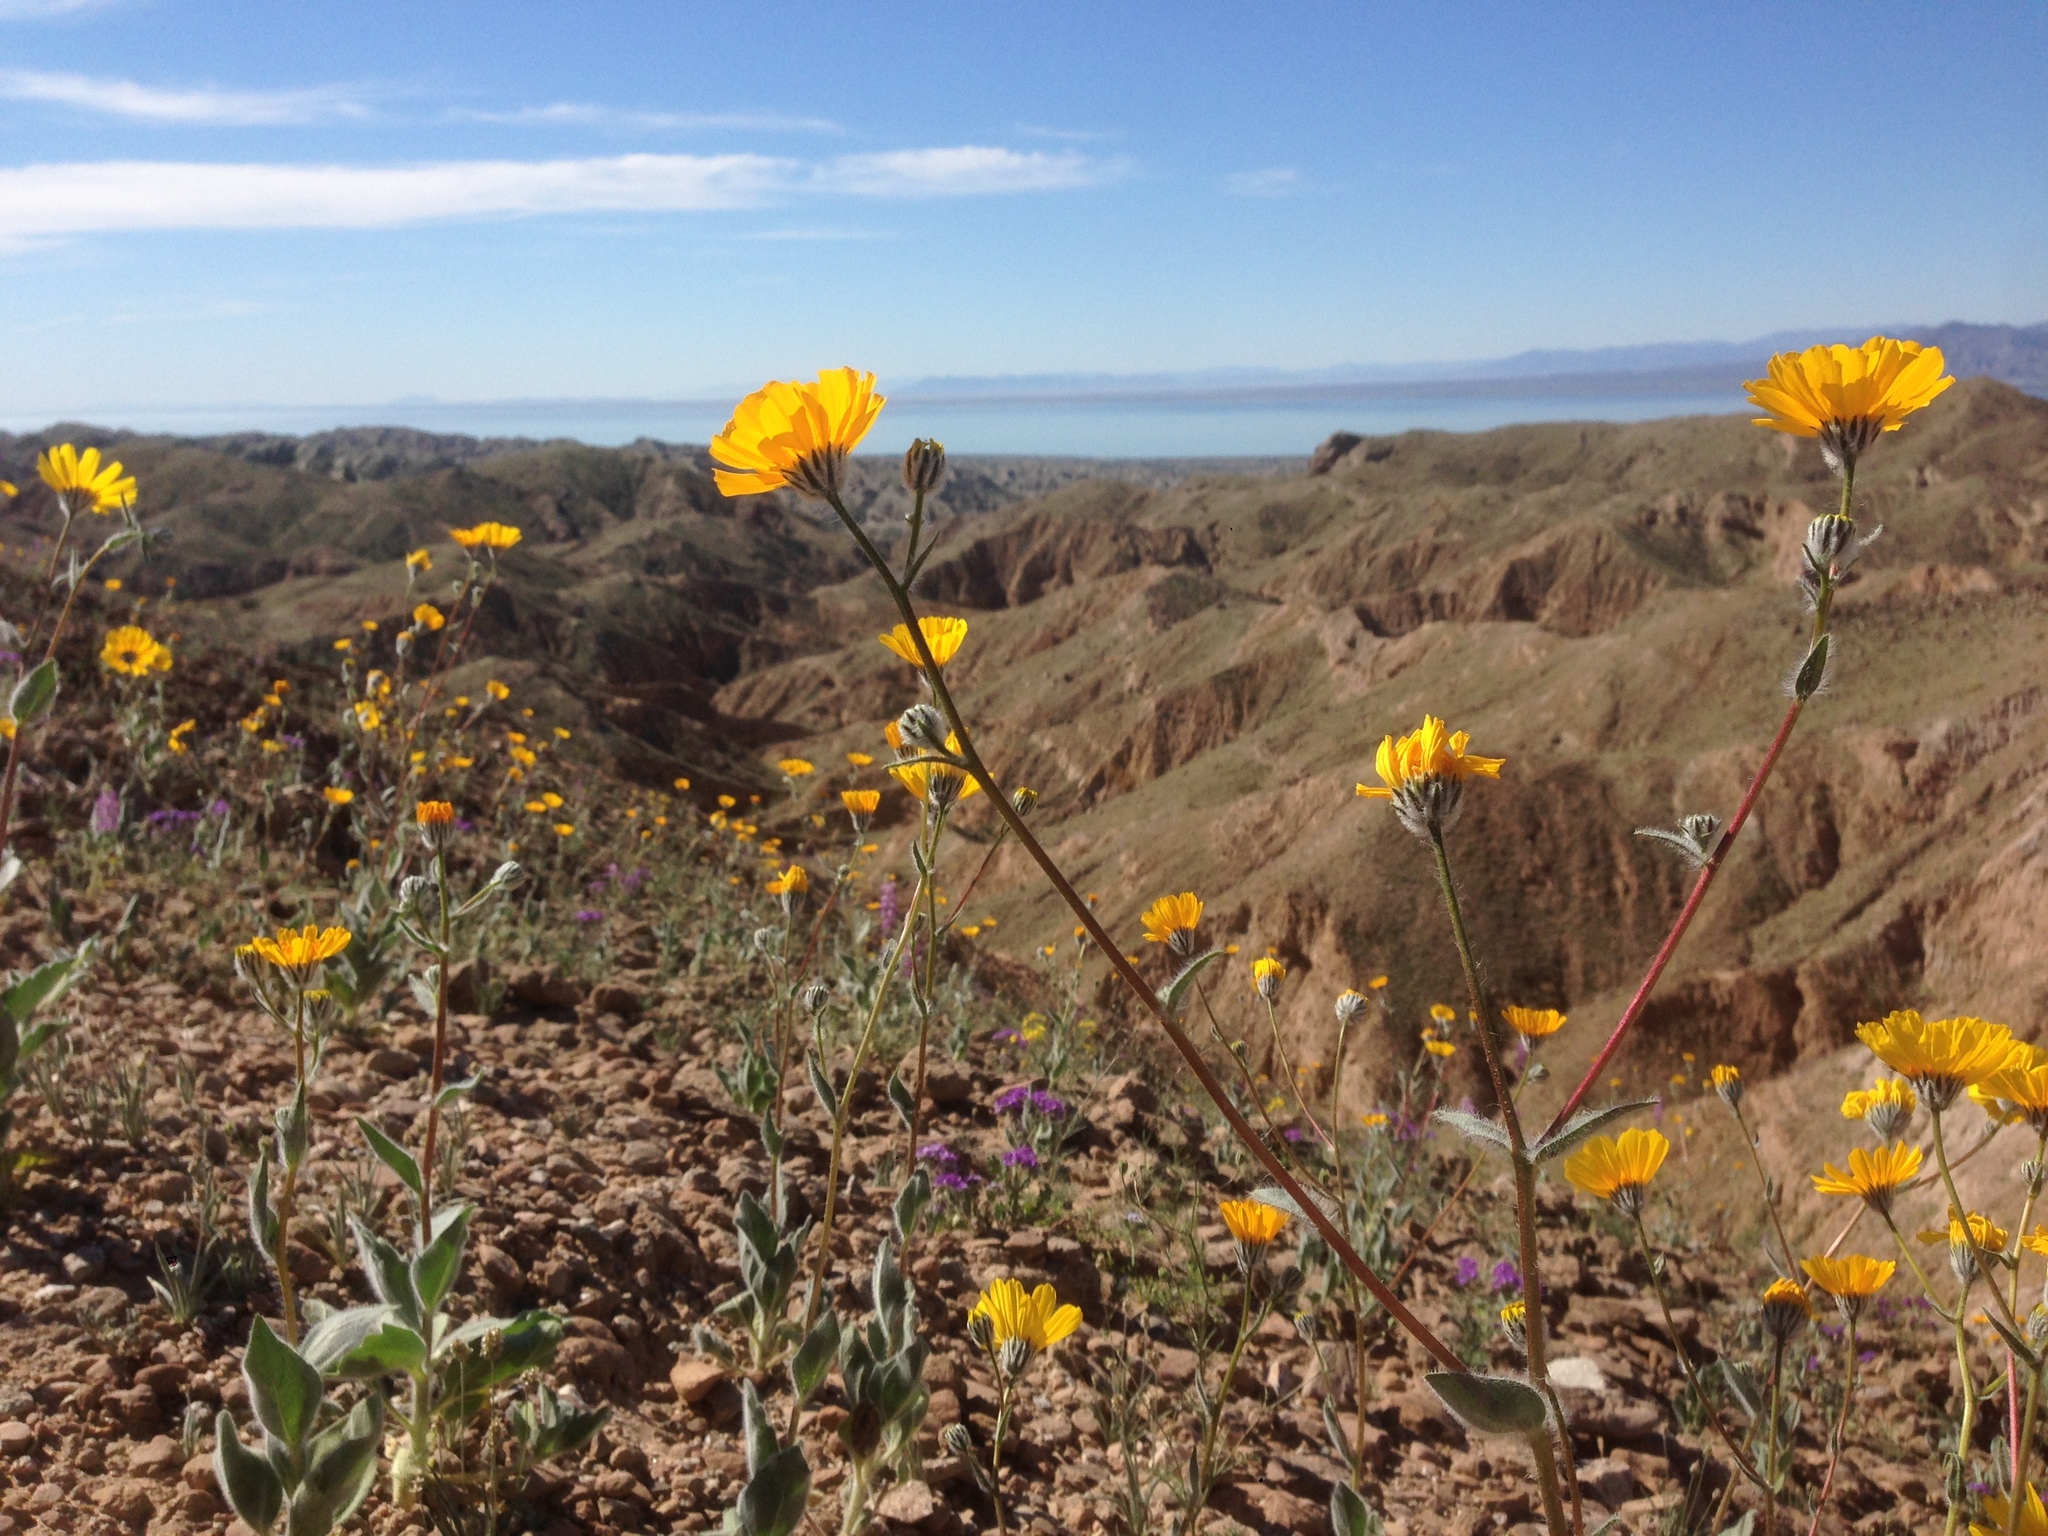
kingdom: Plantae
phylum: Tracheophyta
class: Magnoliopsida
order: Asterales
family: Asteraceae
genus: Geraea
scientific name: Geraea canescens
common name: Desert-gold
